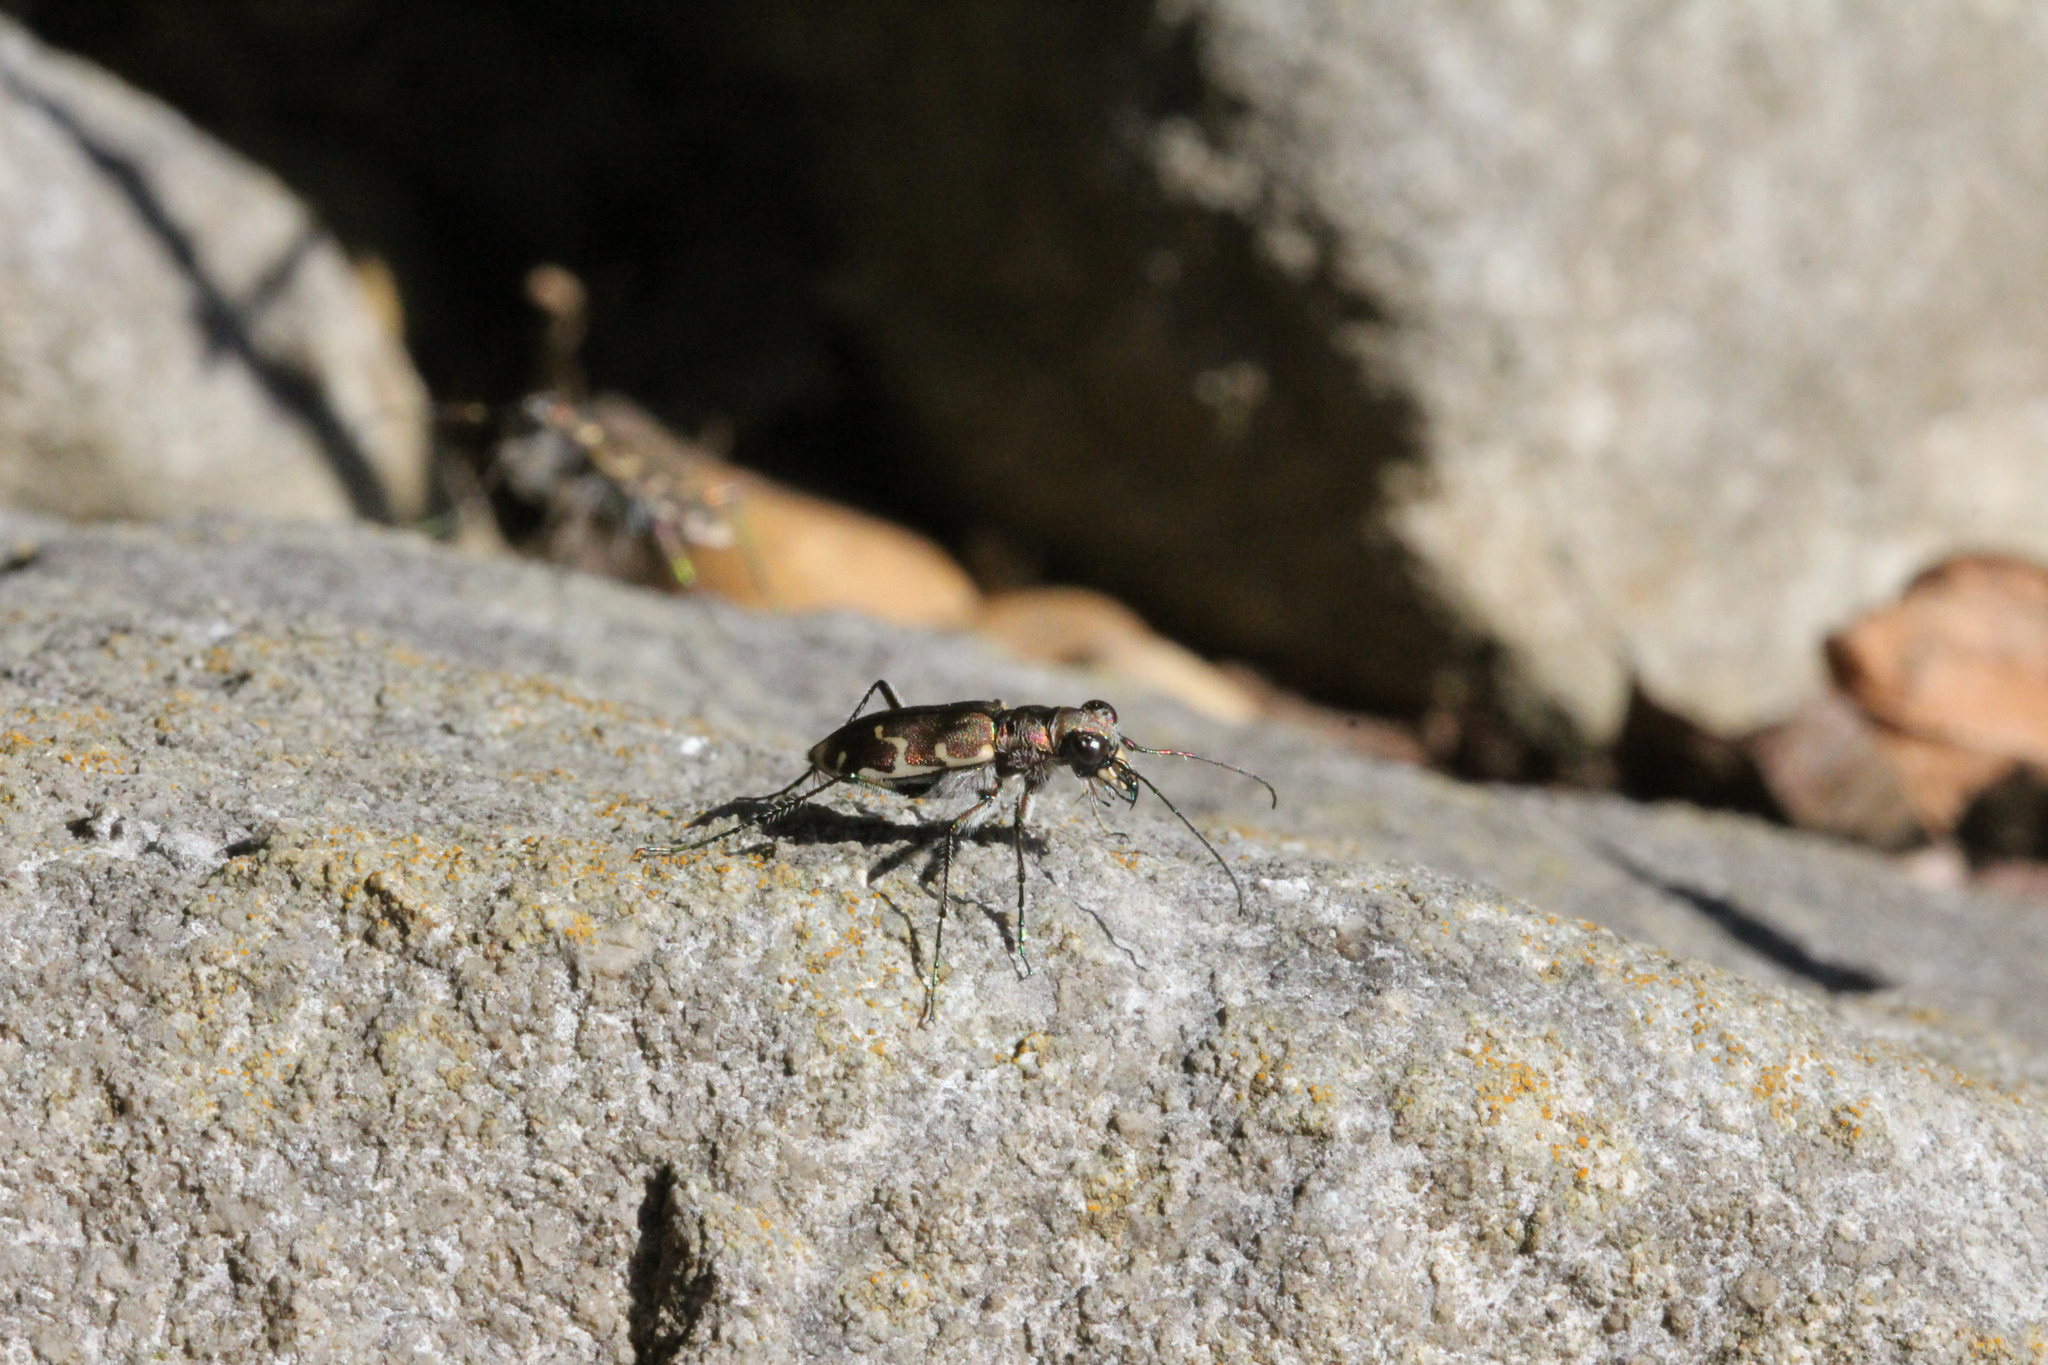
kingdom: Animalia
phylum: Arthropoda
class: Insecta
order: Coleoptera
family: Carabidae
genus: Cicindela
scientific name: Cicindela repanda
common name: Bronzed tiger beetle
